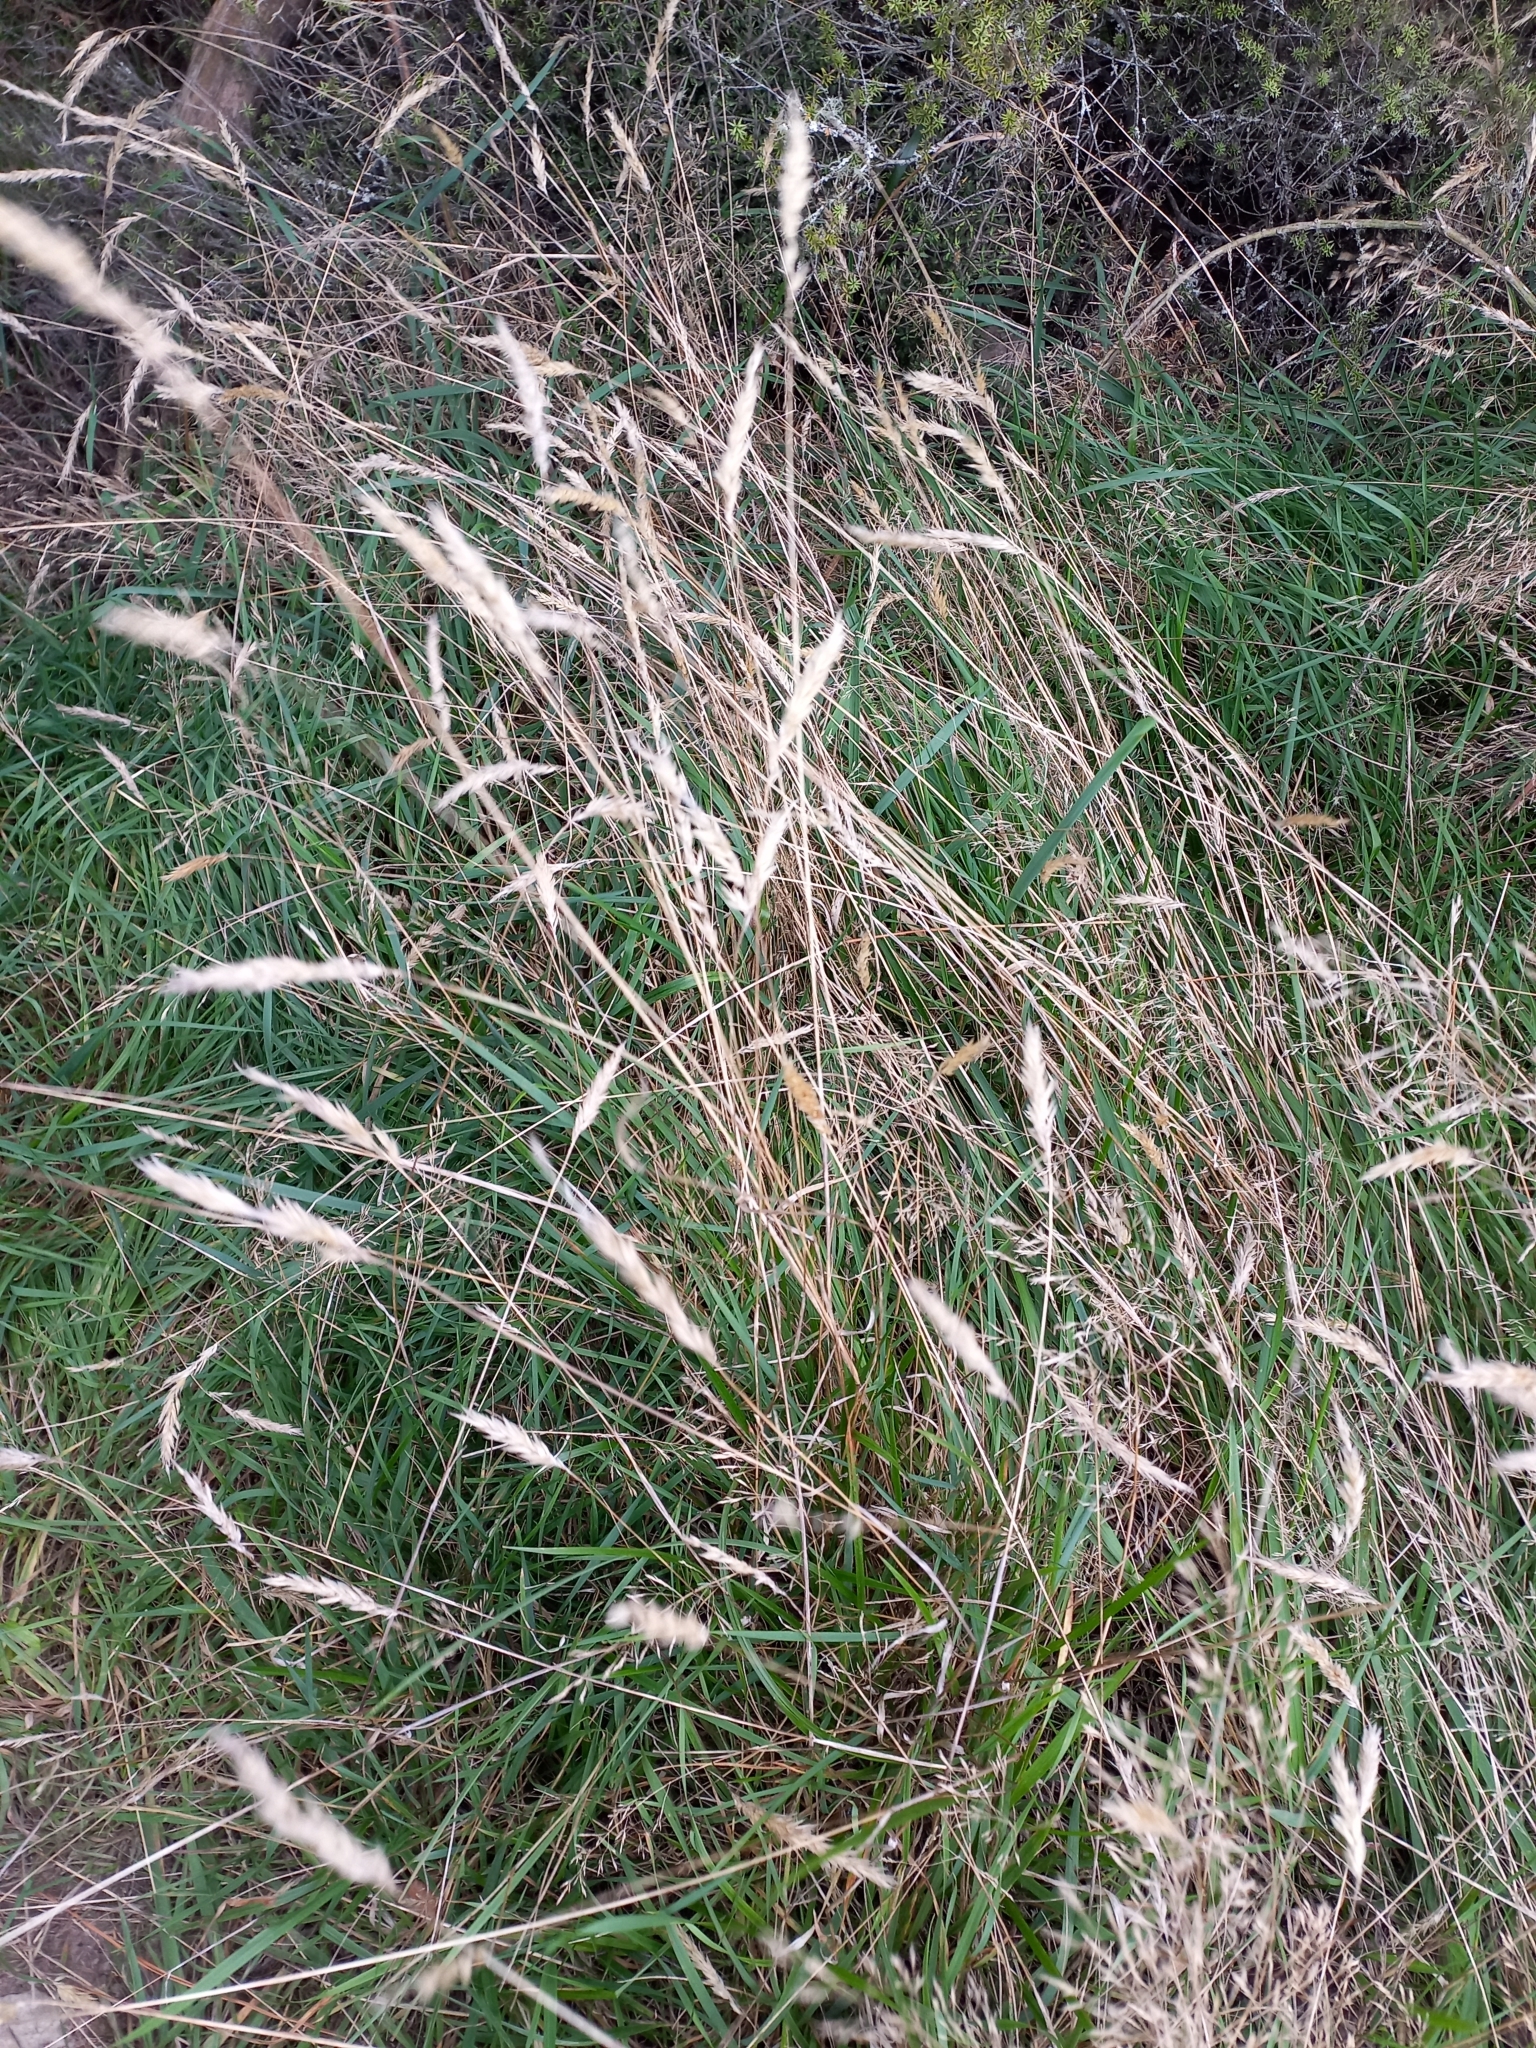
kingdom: Plantae
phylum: Tracheophyta
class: Liliopsida
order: Poales
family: Poaceae
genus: Anthoxanthum
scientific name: Anthoxanthum odoratum
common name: Sweet vernalgrass
